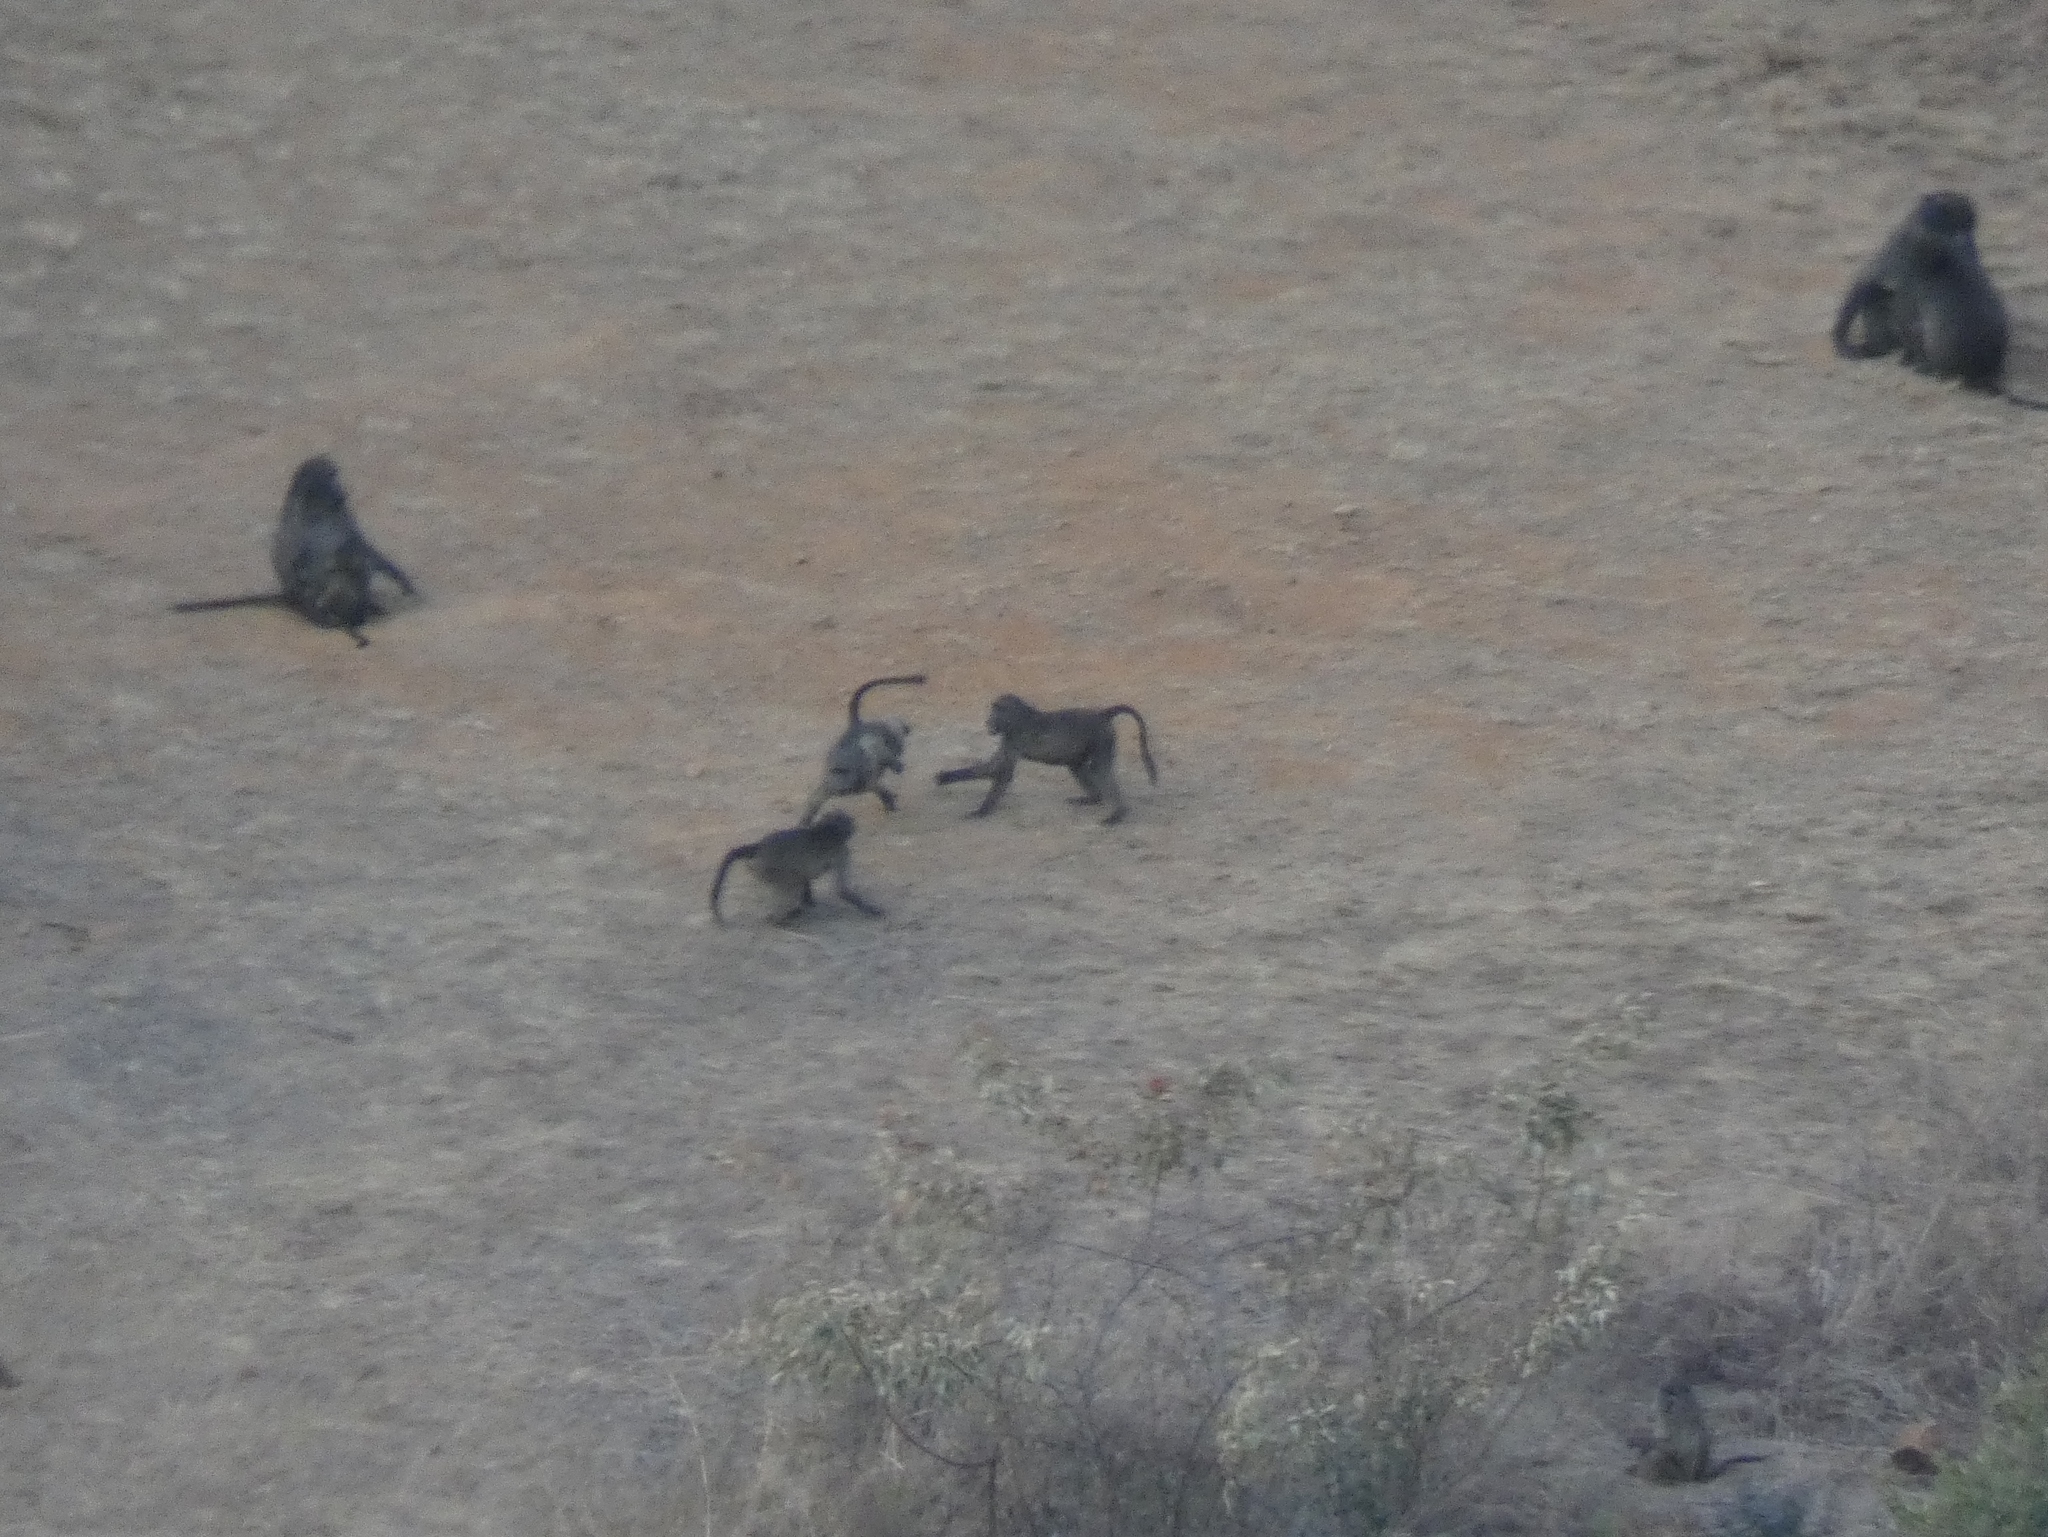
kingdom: Animalia
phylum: Chordata
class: Mammalia
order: Primates
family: Cercopithecidae
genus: Papio
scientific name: Papio ursinus
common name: Chacma baboon
